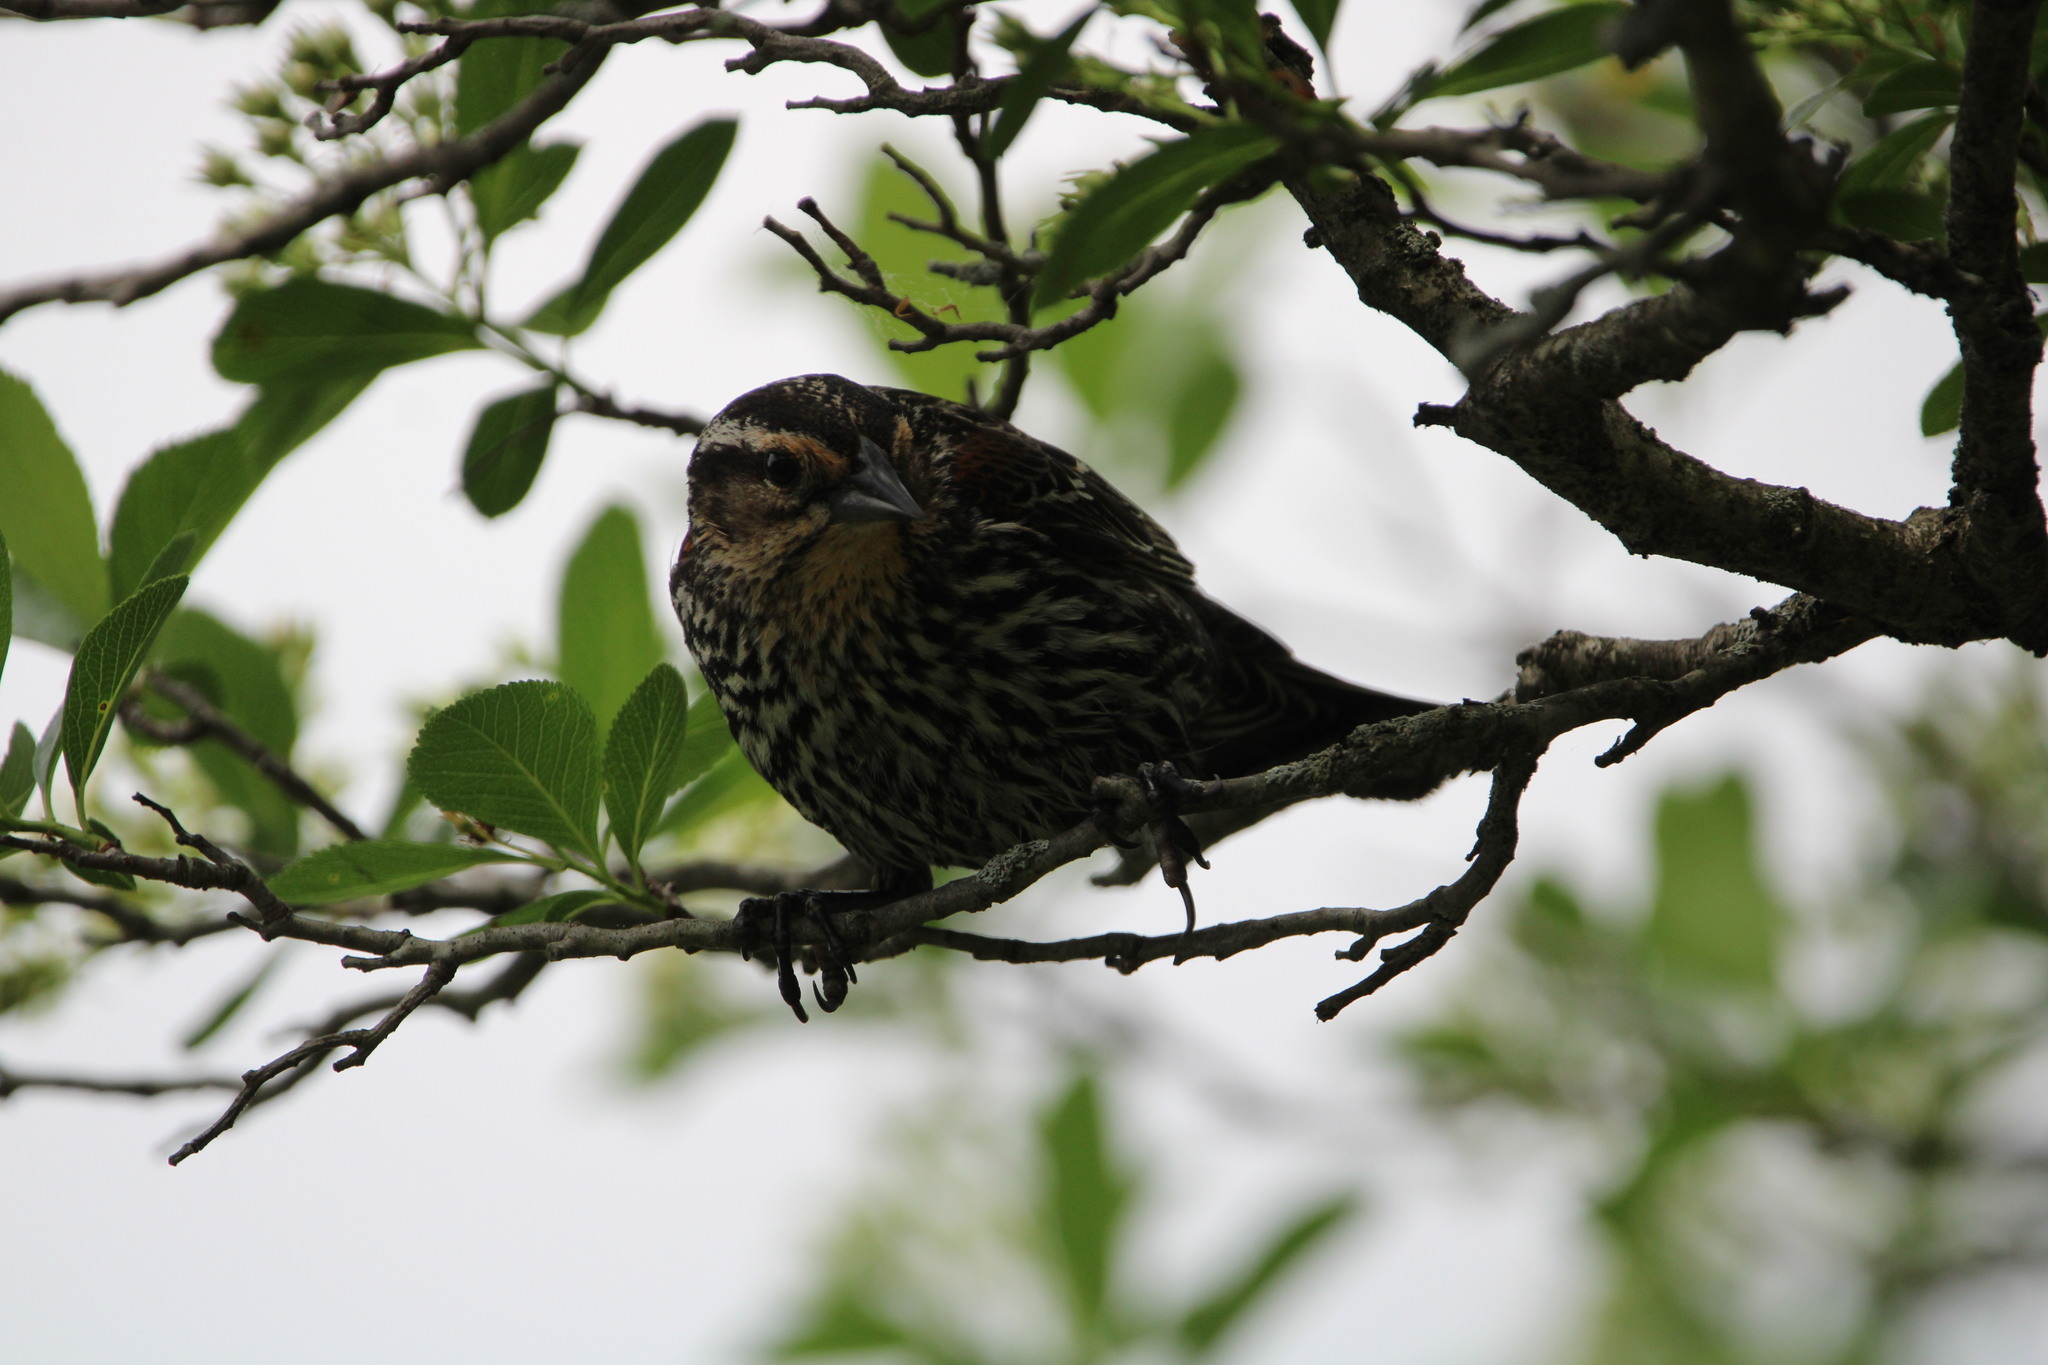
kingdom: Animalia
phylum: Chordata
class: Aves
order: Passeriformes
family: Icteridae
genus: Agelaius
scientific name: Agelaius phoeniceus
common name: Red-winged blackbird
